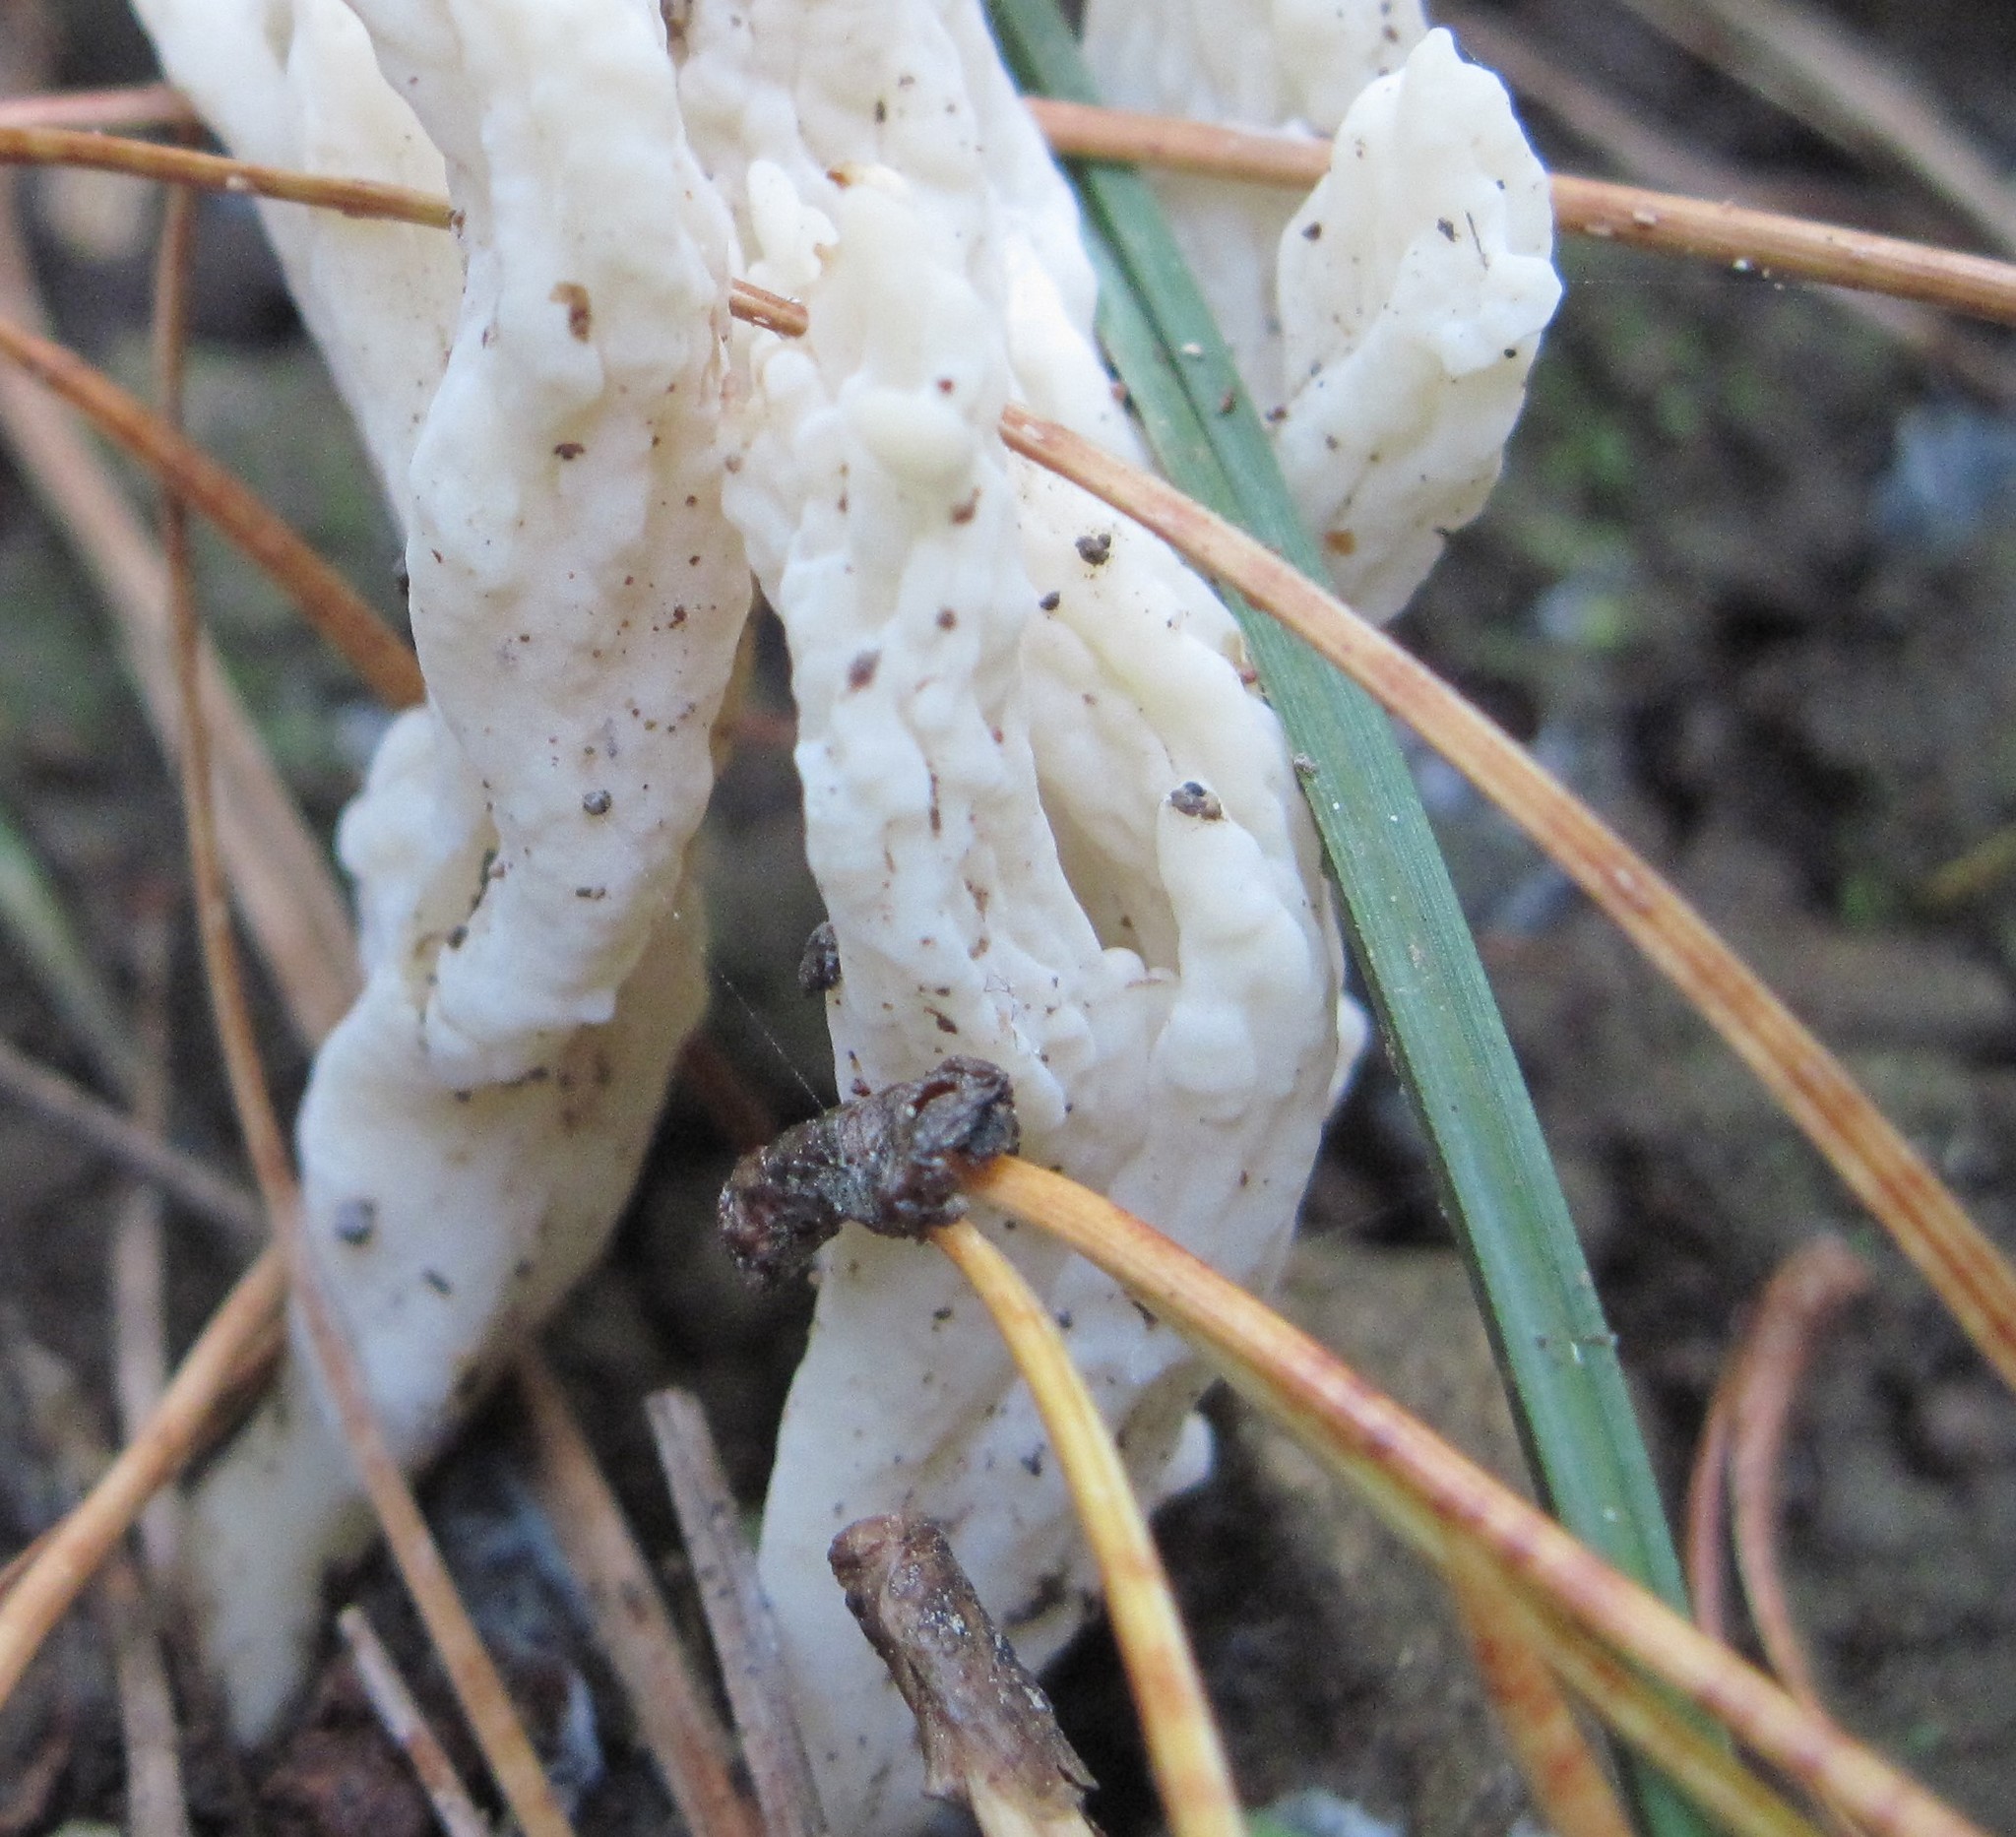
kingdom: Fungi
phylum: Basidiomycota
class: Agaricomycetes
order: Cantharellales
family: Hydnaceae
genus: Clavulina
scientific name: Clavulina rugosa
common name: Wrinkled club
